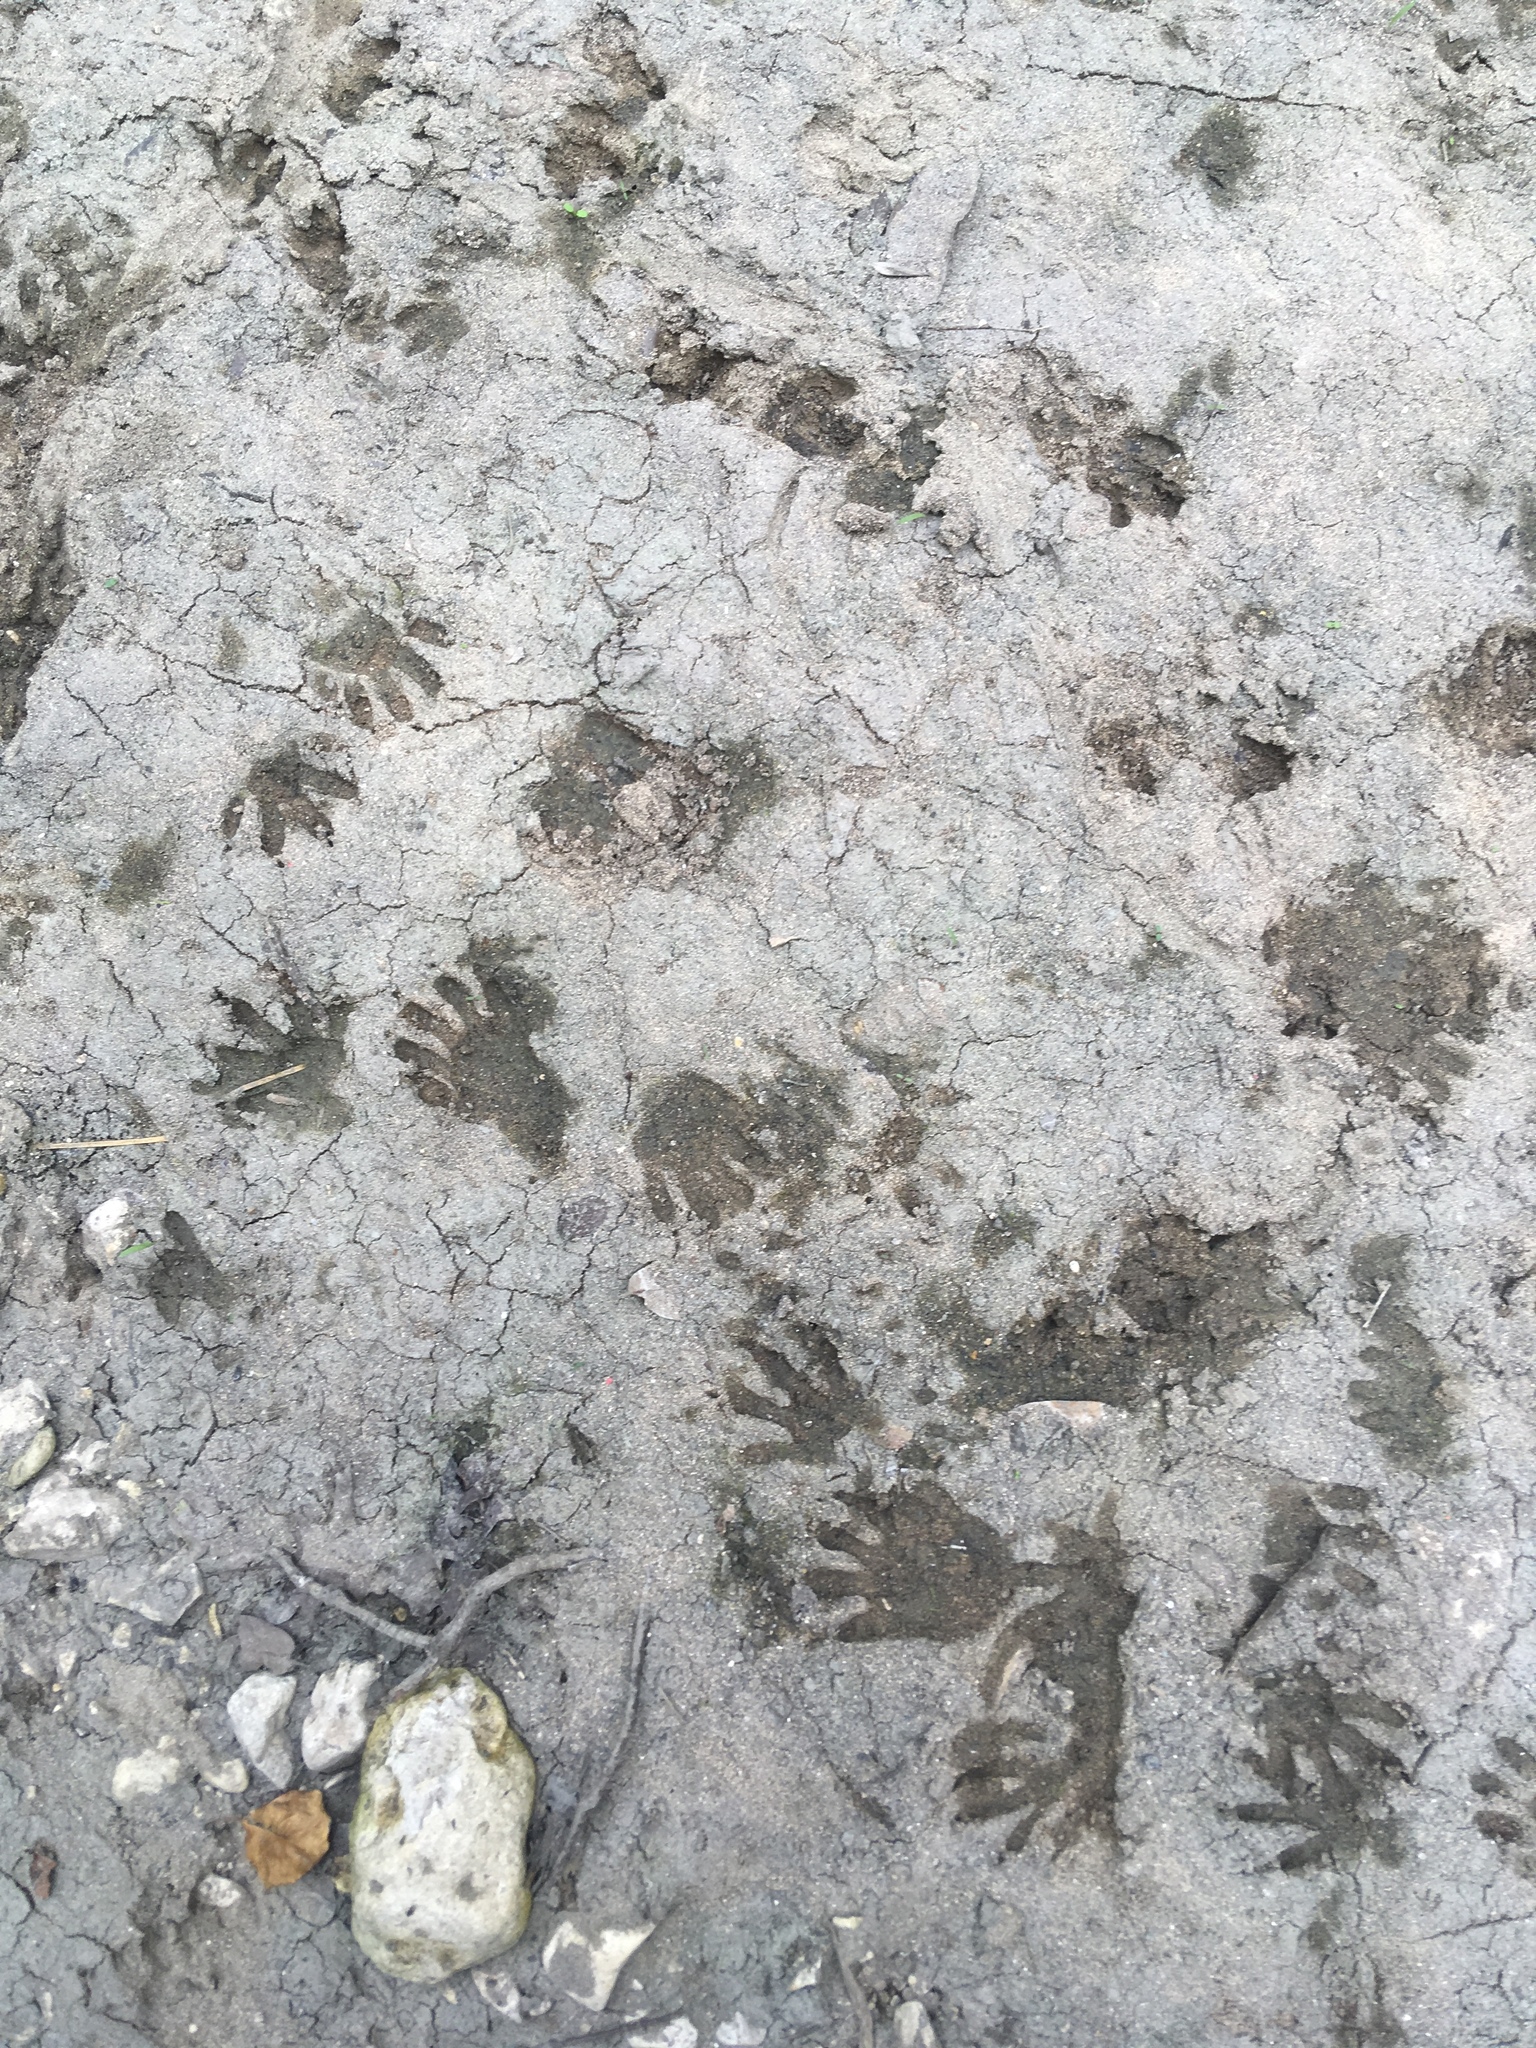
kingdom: Animalia
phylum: Chordata
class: Mammalia
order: Carnivora
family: Procyonidae
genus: Procyon
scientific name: Procyon lotor
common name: Raccoon
